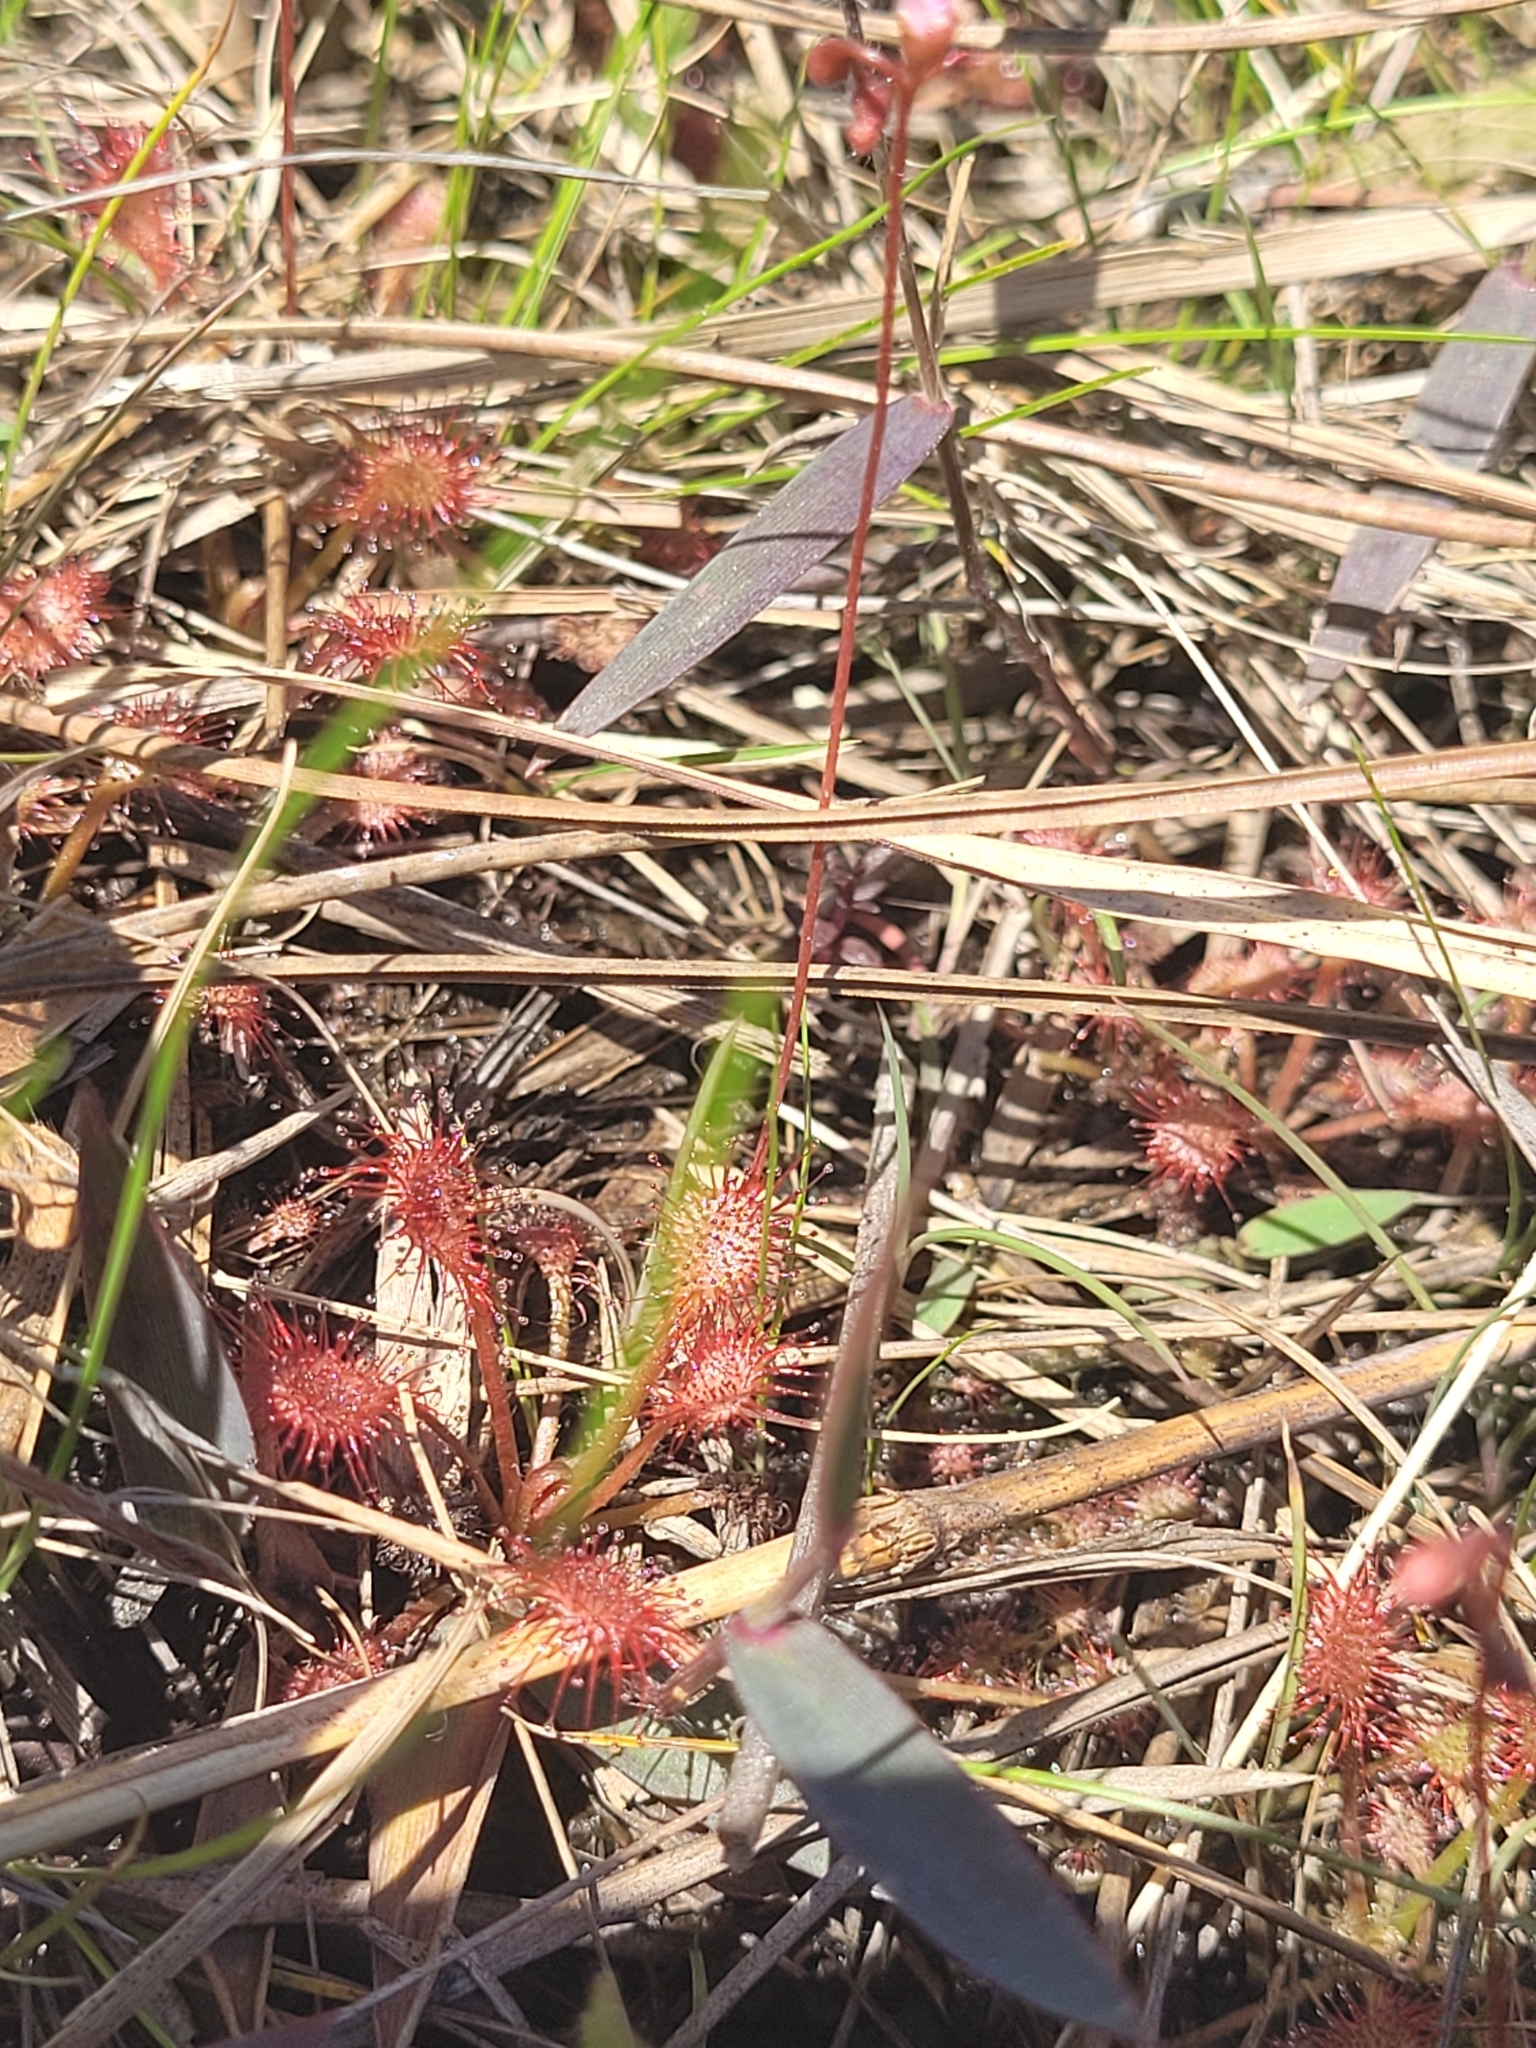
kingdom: Plantae
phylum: Tracheophyta
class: Magnoliopsida
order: Caryophyllales
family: Droseraceae
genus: Drosera
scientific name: Drosera capillaris
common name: Pink sundew
